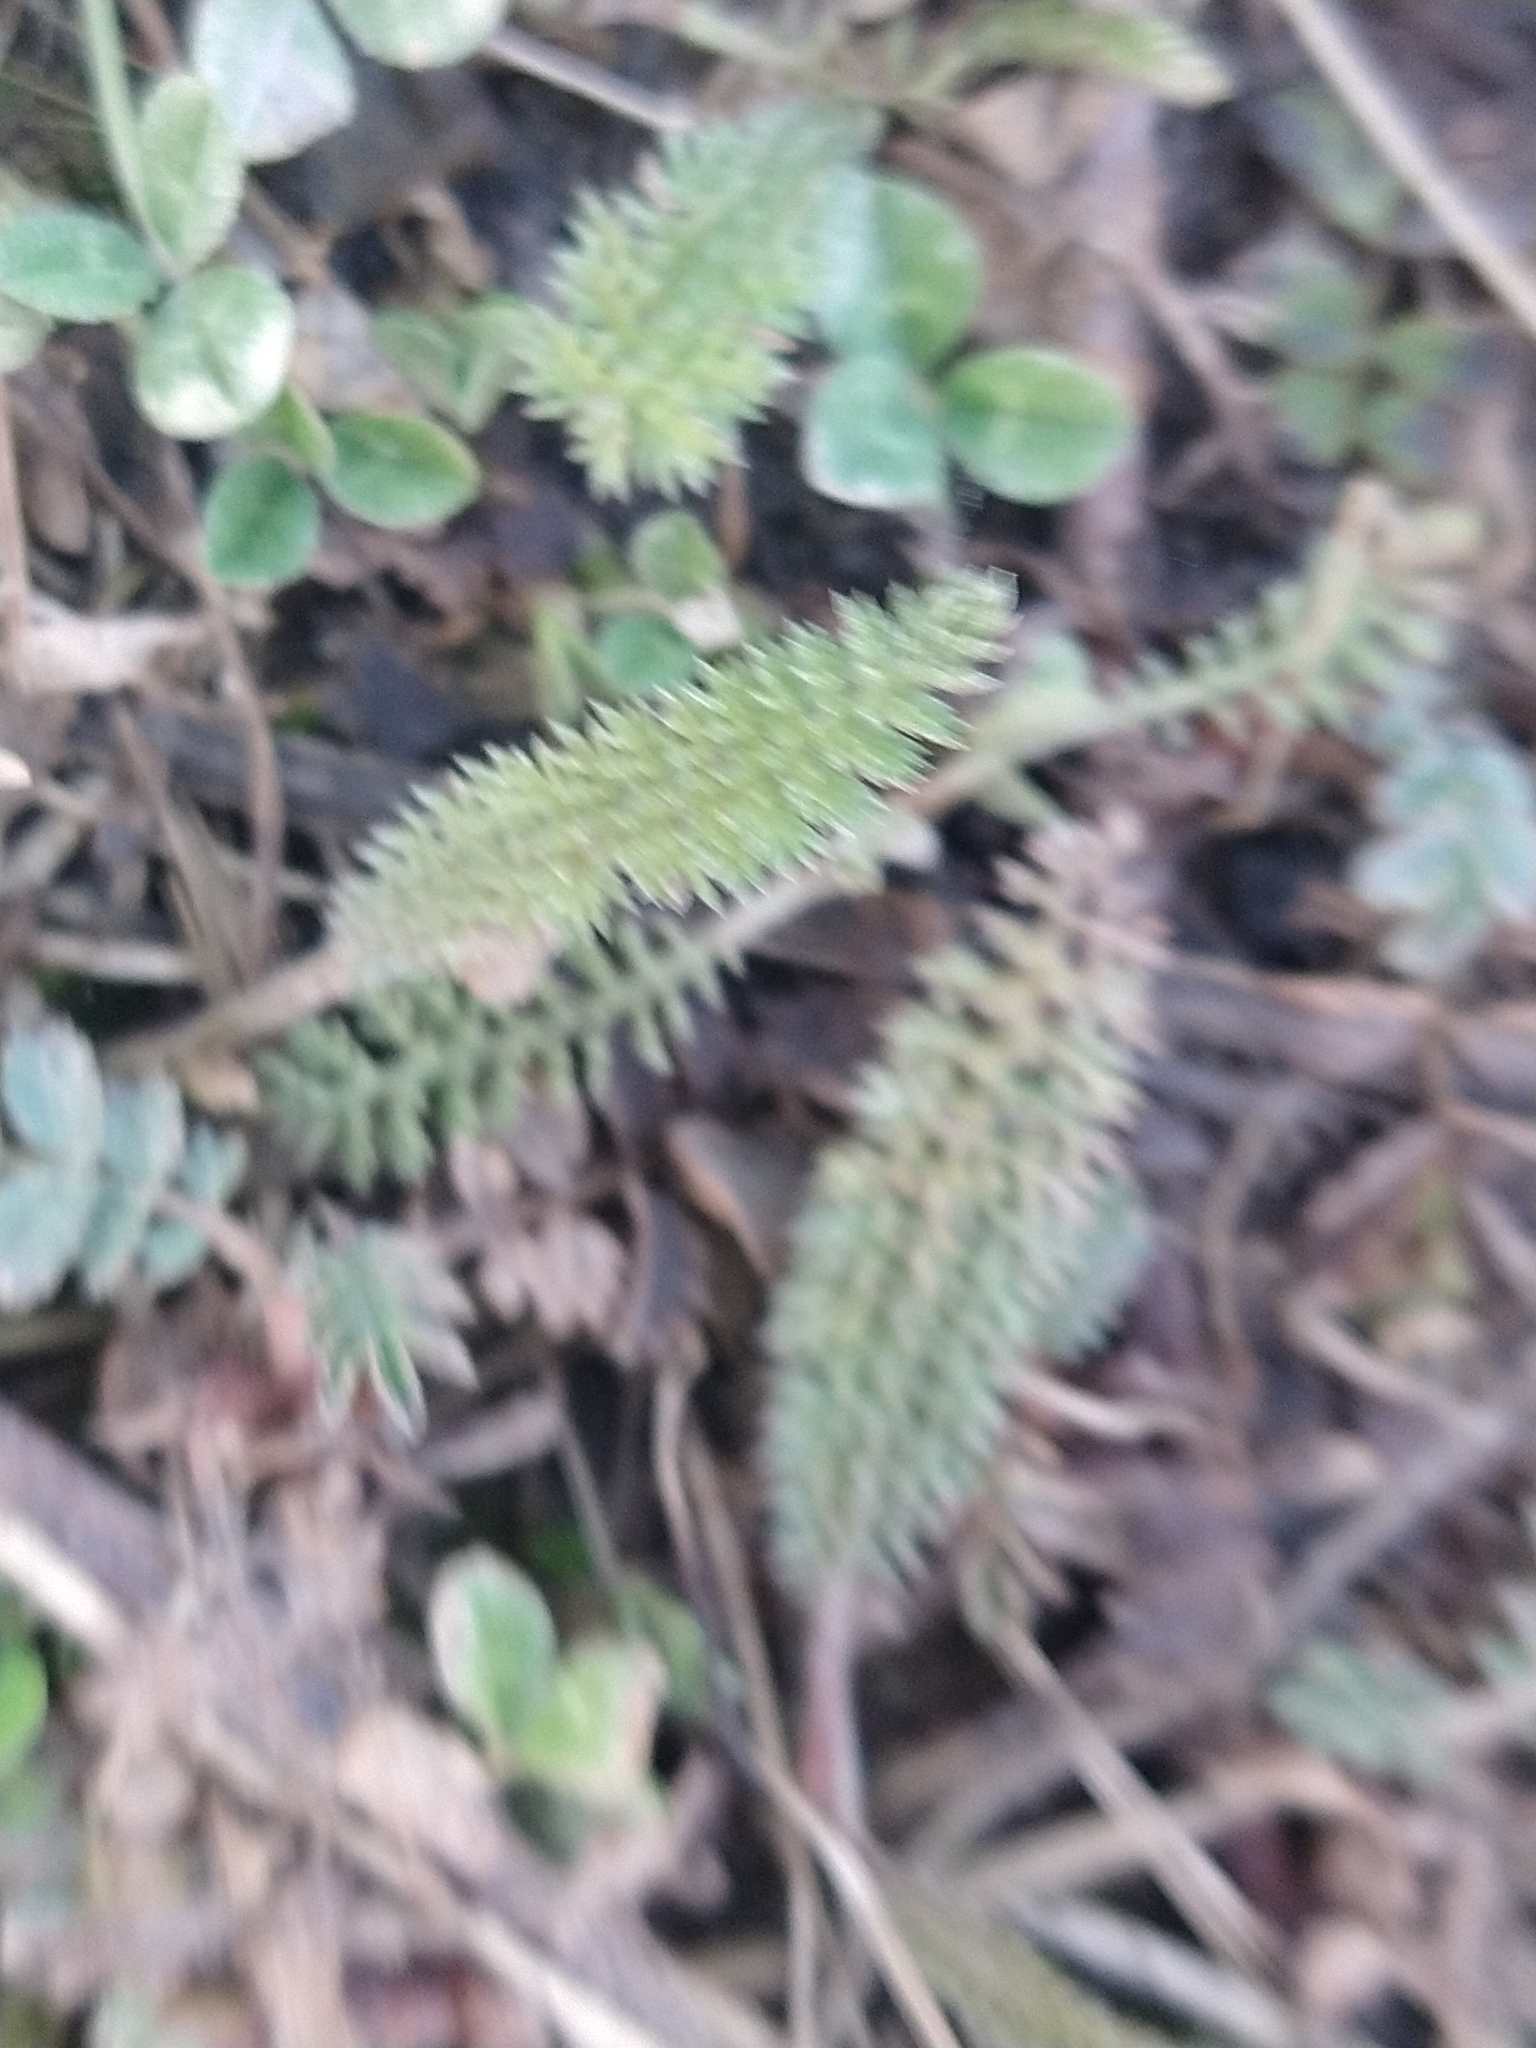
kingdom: Plantae
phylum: Tracheophyta
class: Magnoliopsida
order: Asterales
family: Asteraceae
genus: Achillea
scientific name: Achillea millefolium
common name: Yarrow
